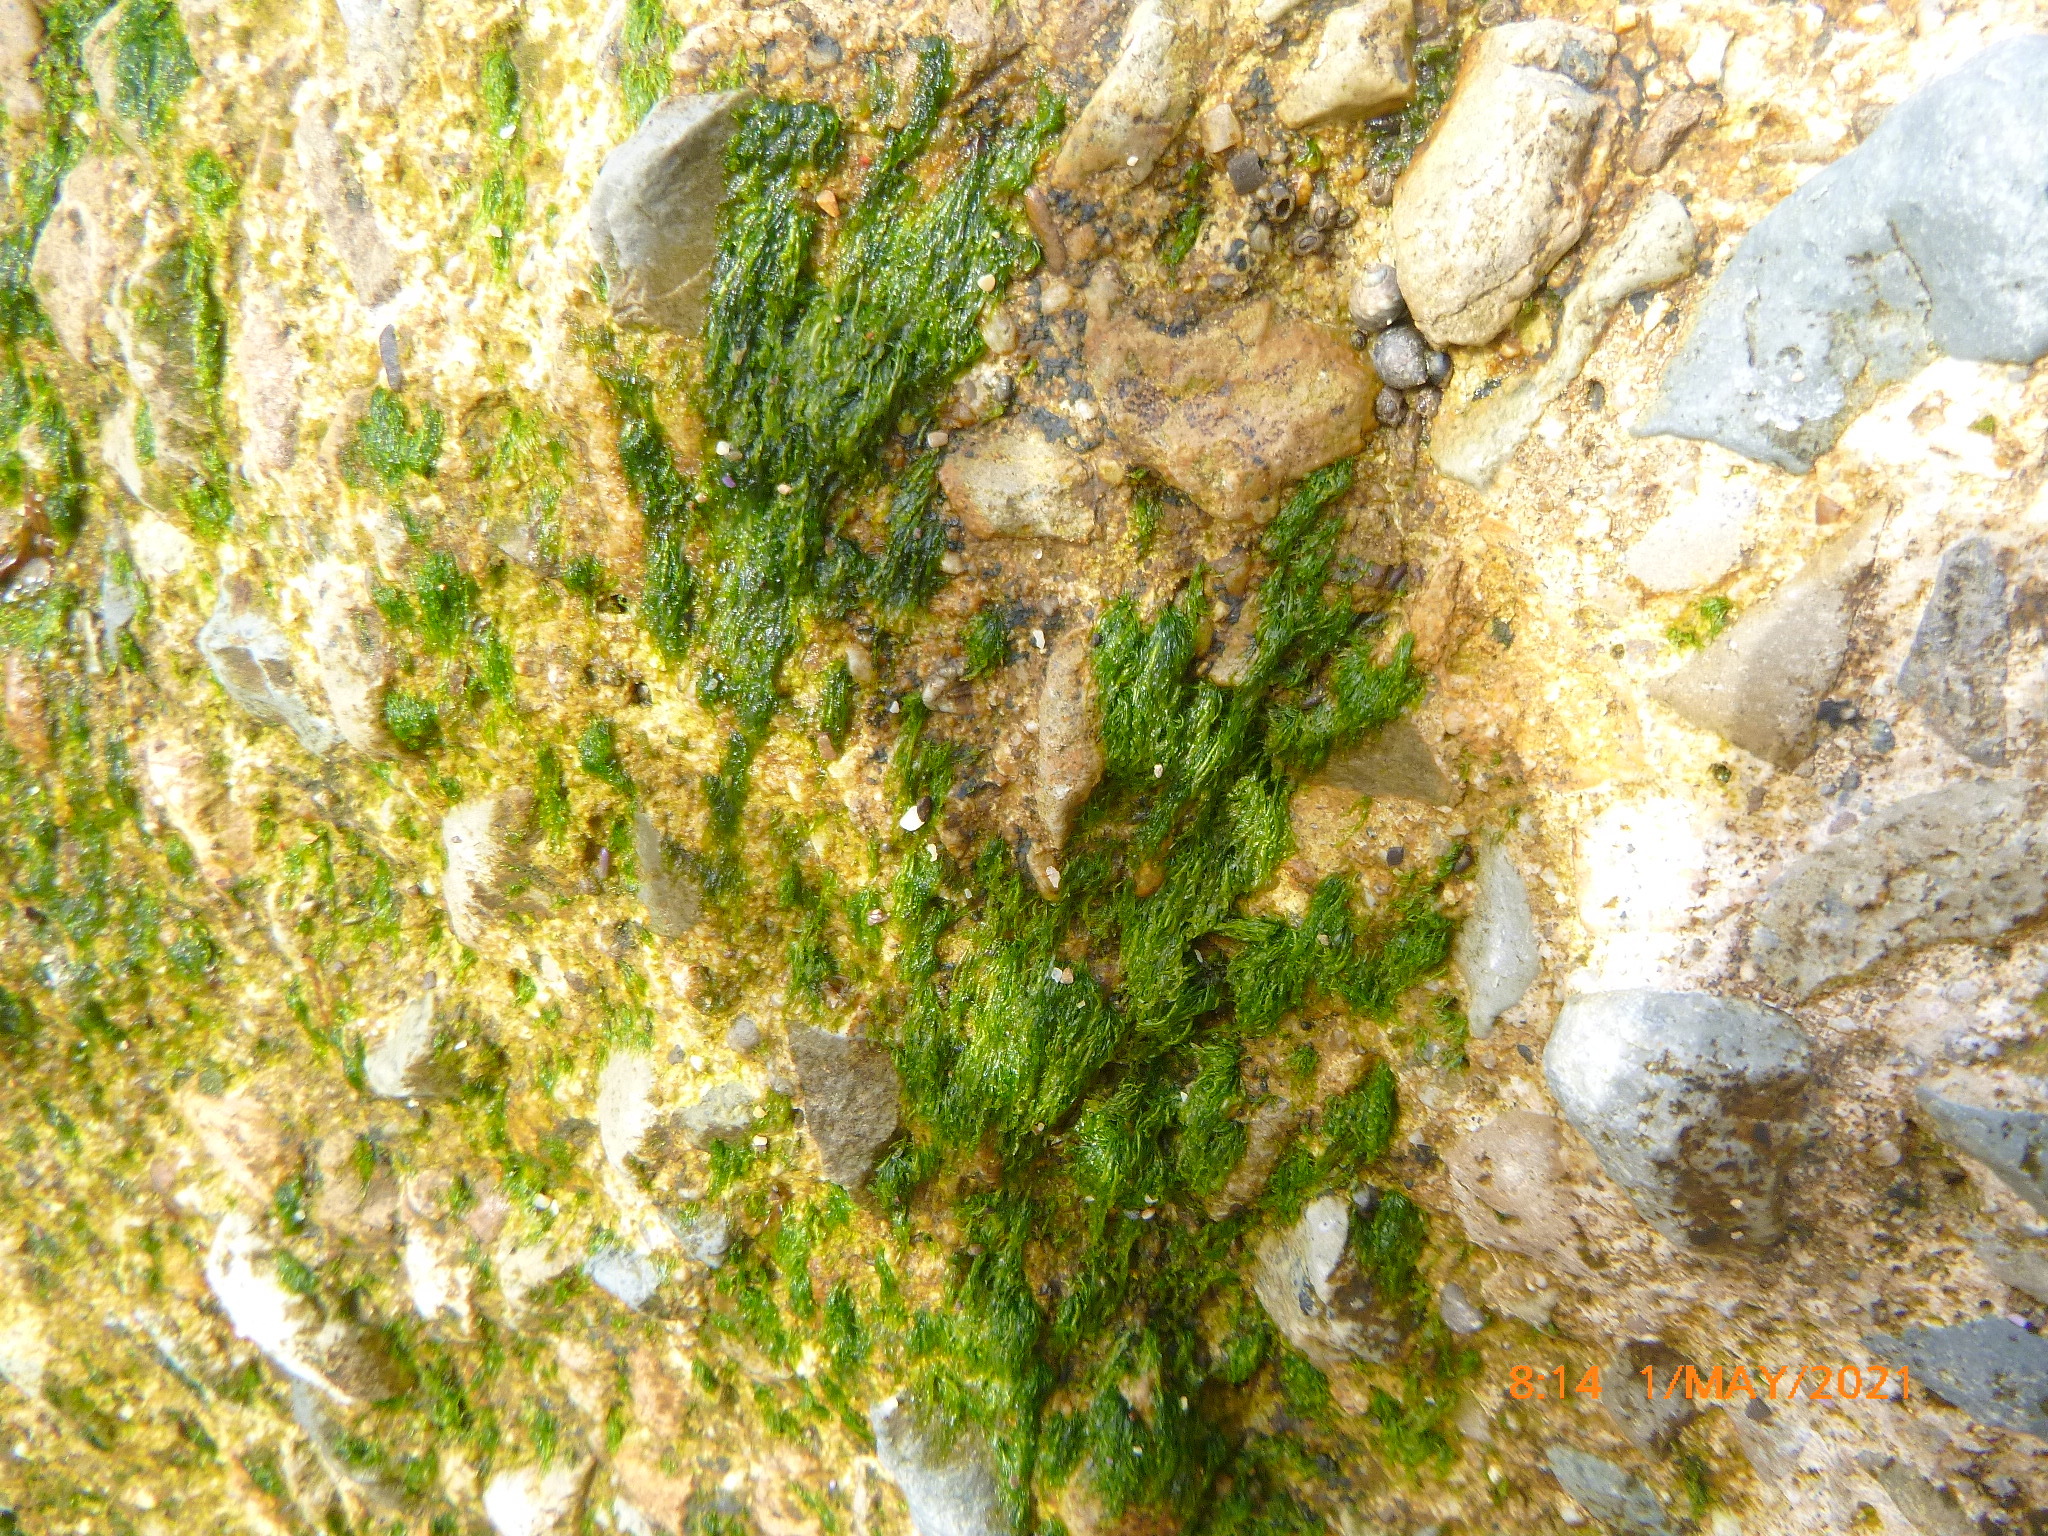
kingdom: Plantae
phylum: Chlorophyta
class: Ulvophyceae
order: Ulvales
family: Ulvaceae
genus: Ulva
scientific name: Ulva intestinalis
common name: Gut weed
